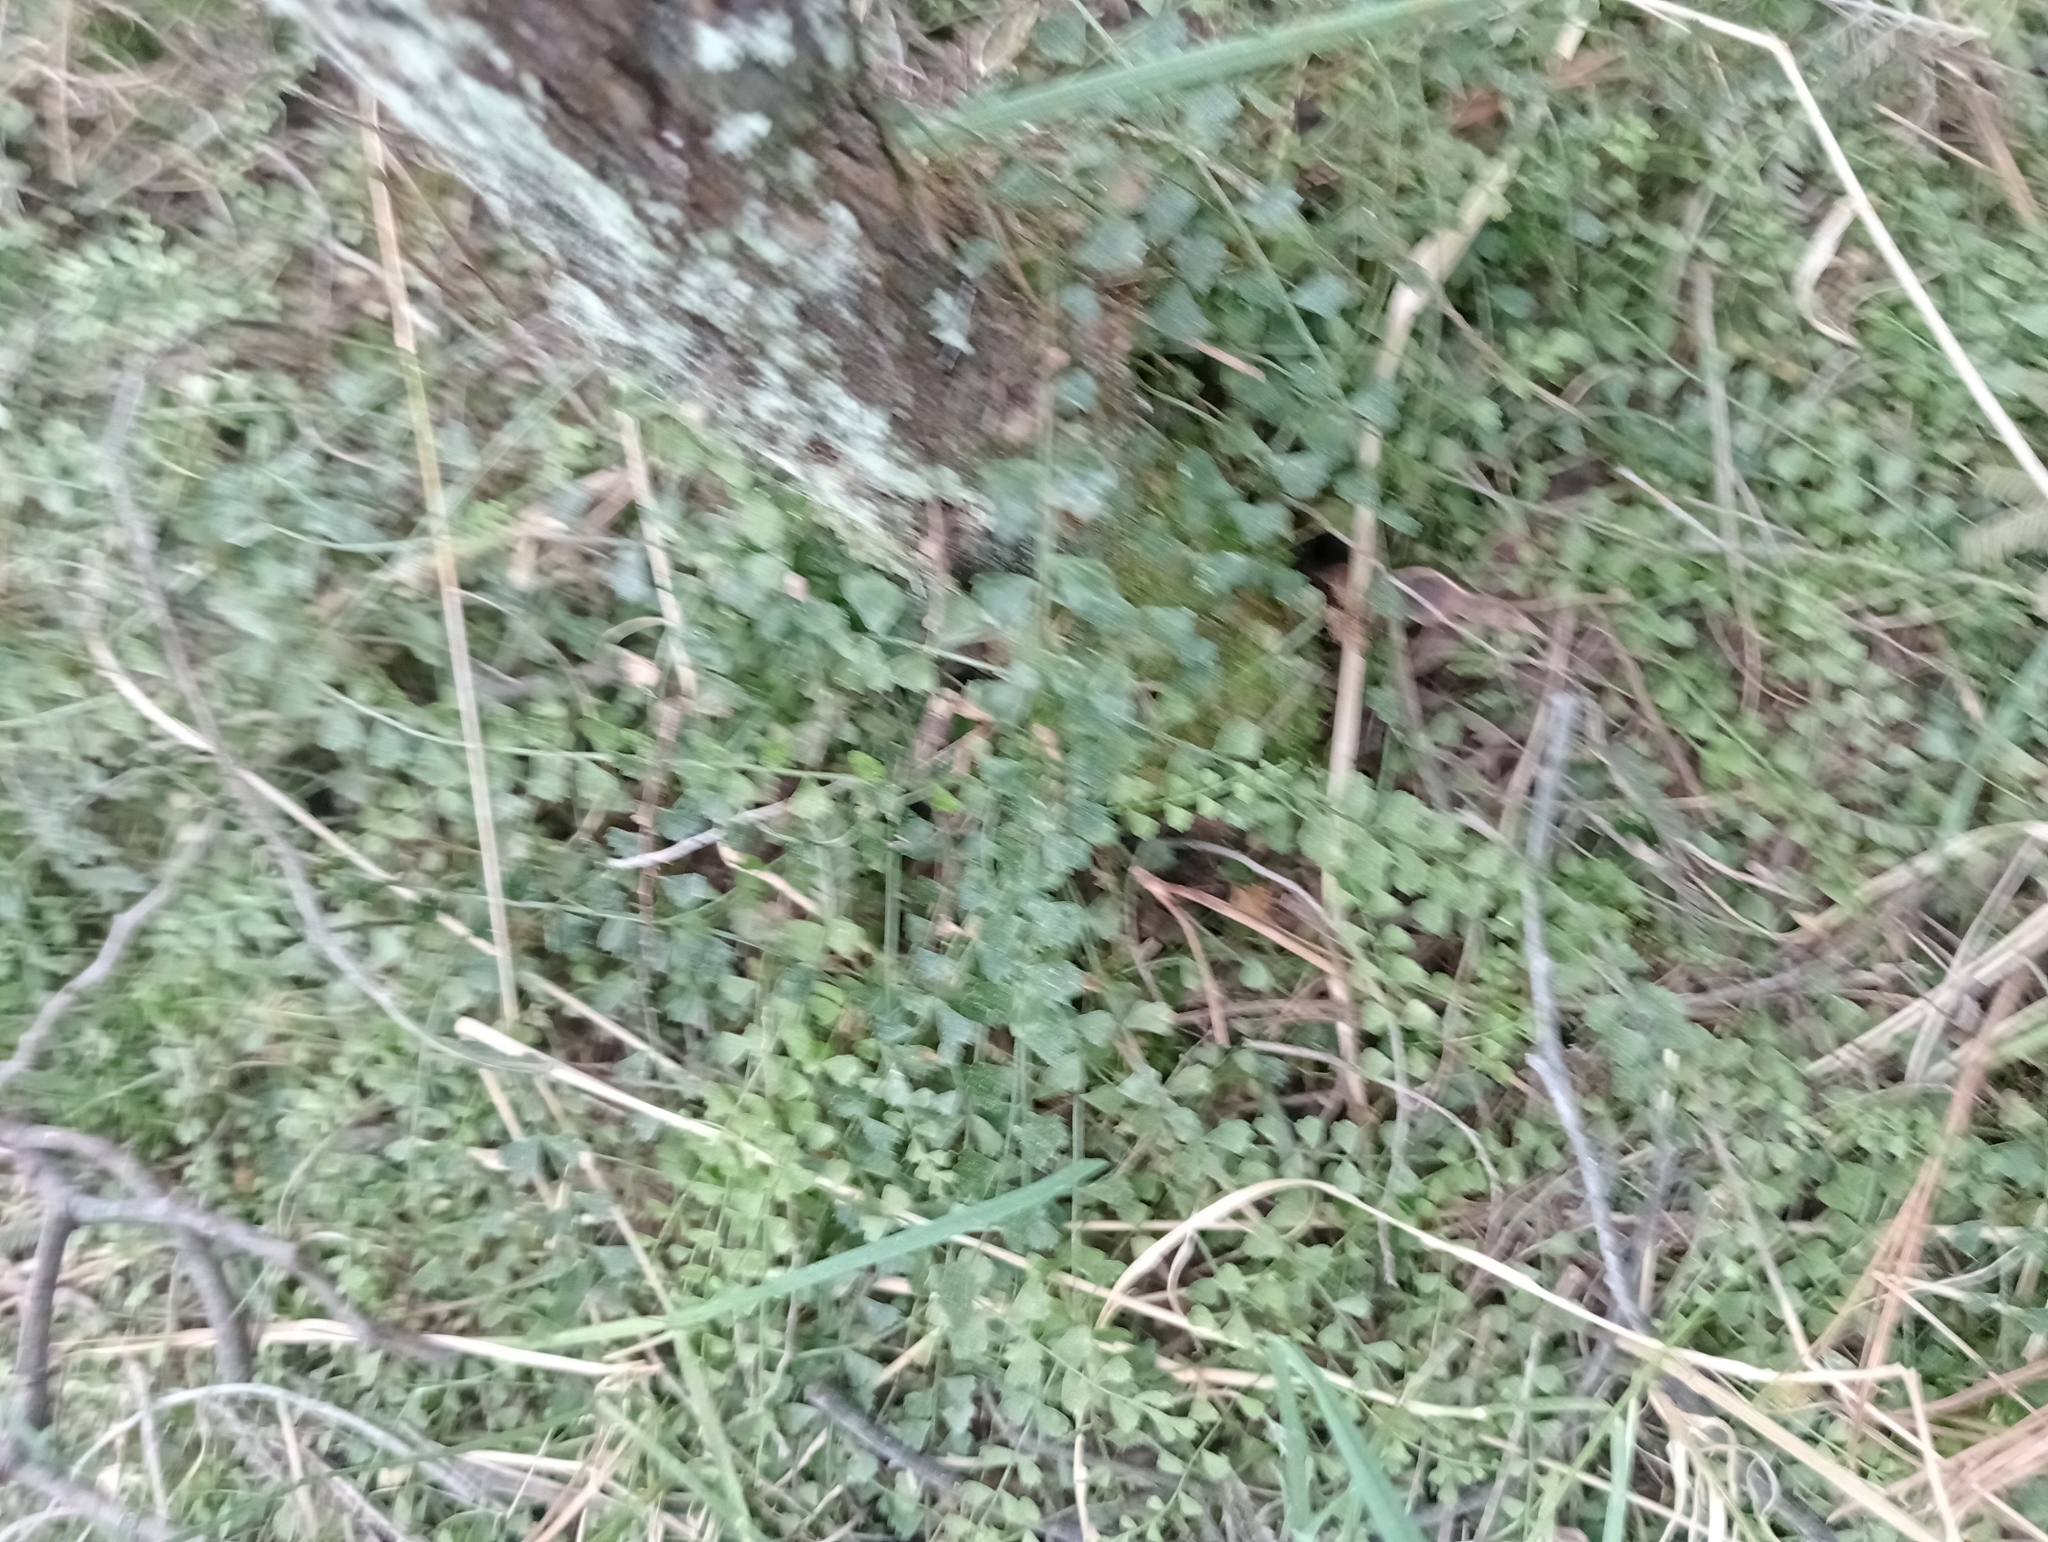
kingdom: Plantae
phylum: Tracheophyta
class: Polypodiopsida
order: Polypodiales
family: Aspleniaceae
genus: Asplenium
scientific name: Asplenium flabellifolium
